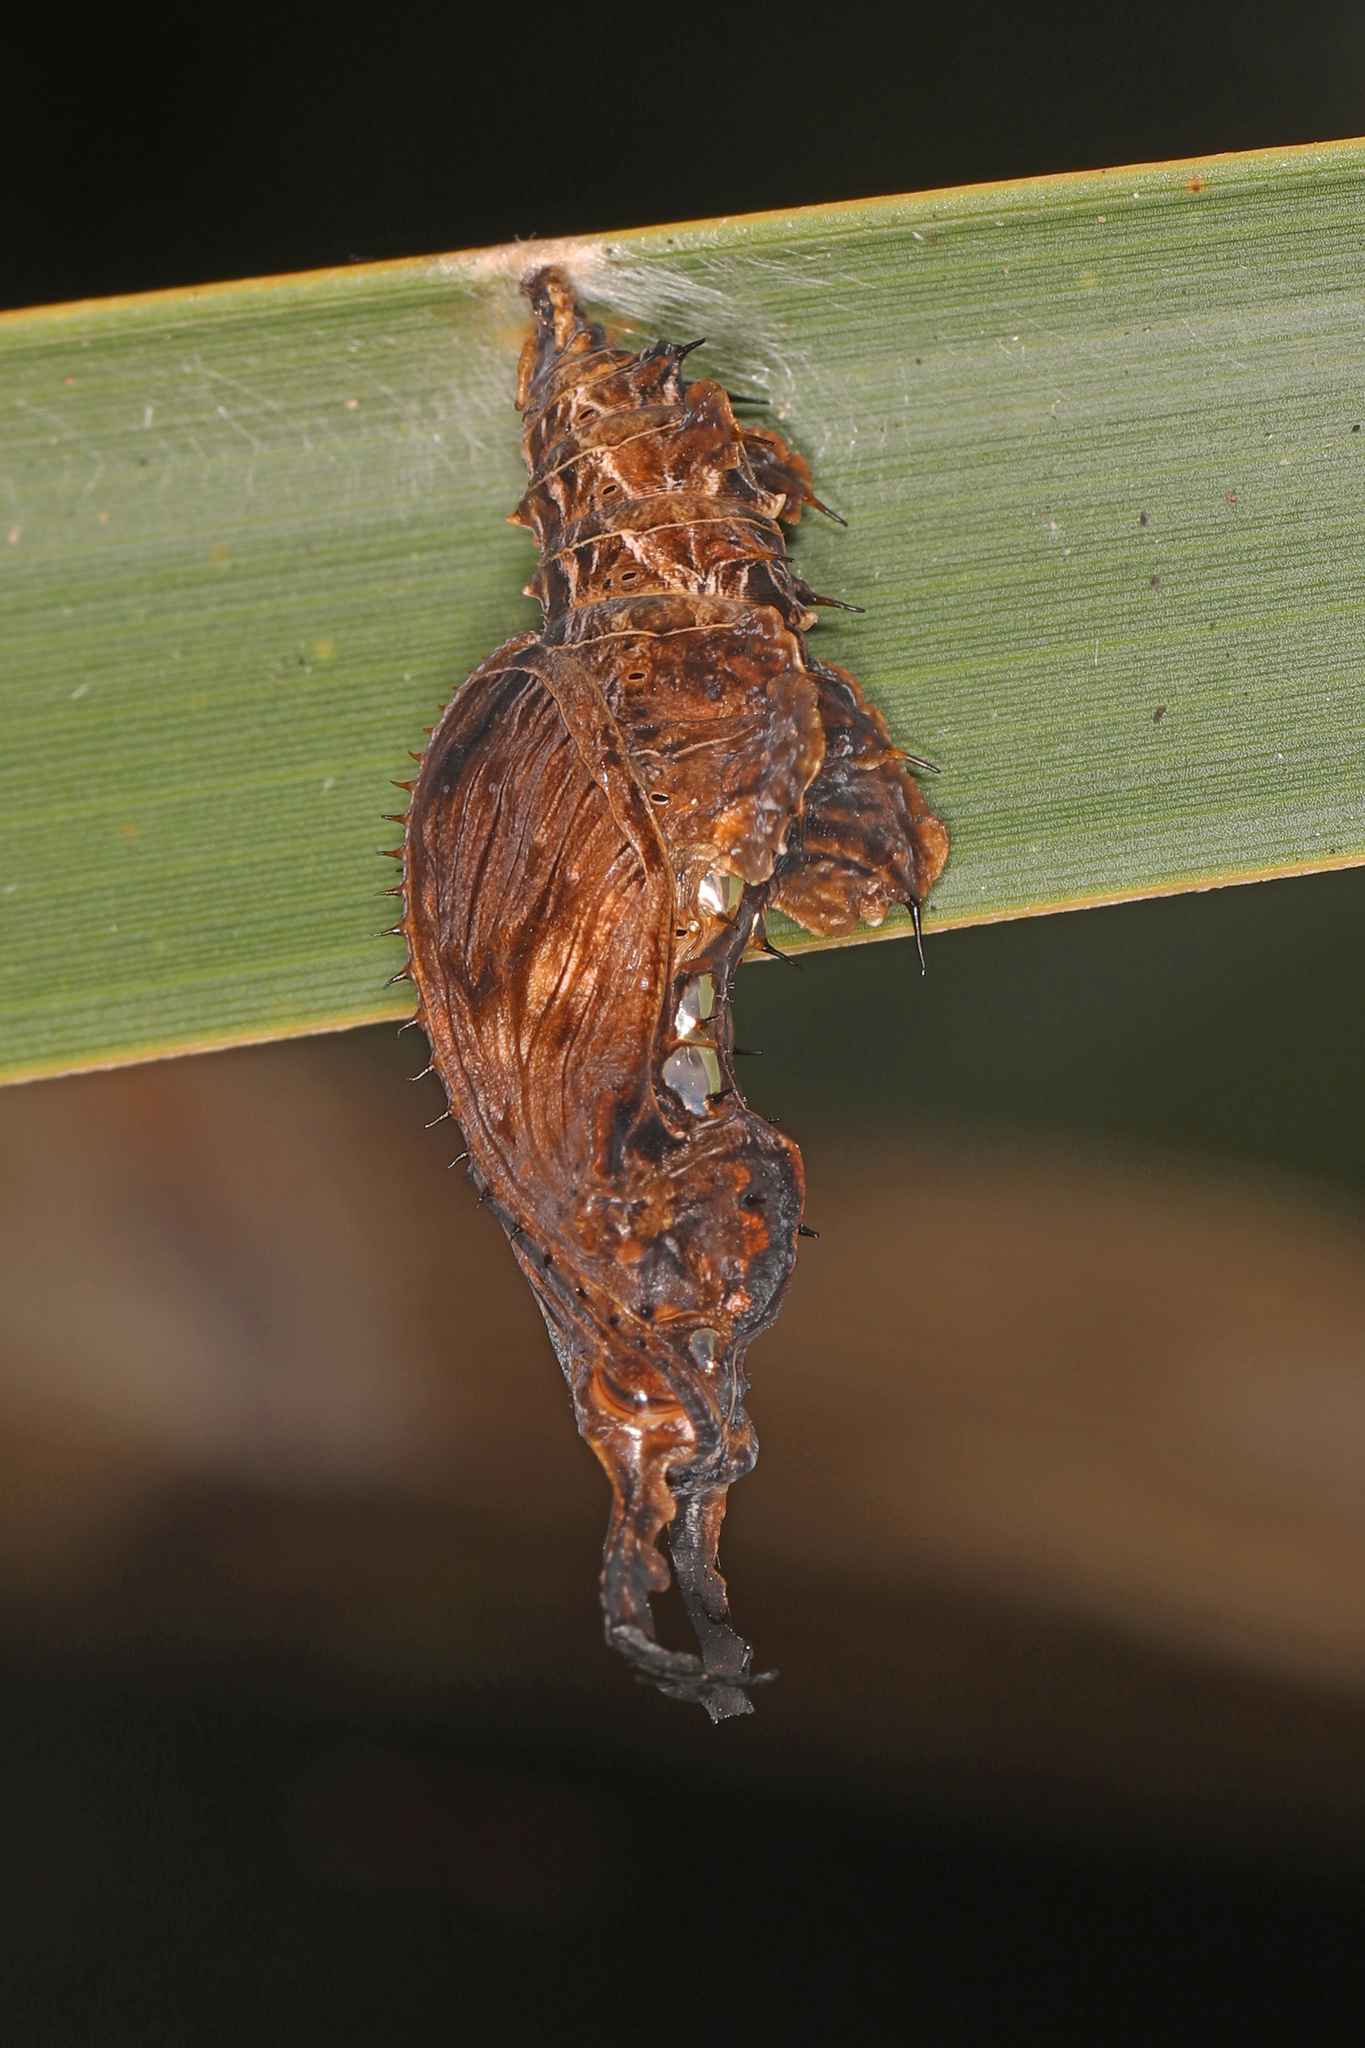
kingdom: Animalia
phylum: Arthropoda
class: Insecta
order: Lepidoptera
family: Nymphalidae
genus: Heliconius
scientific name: Heliconius charithonia
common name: Zebra long wing
